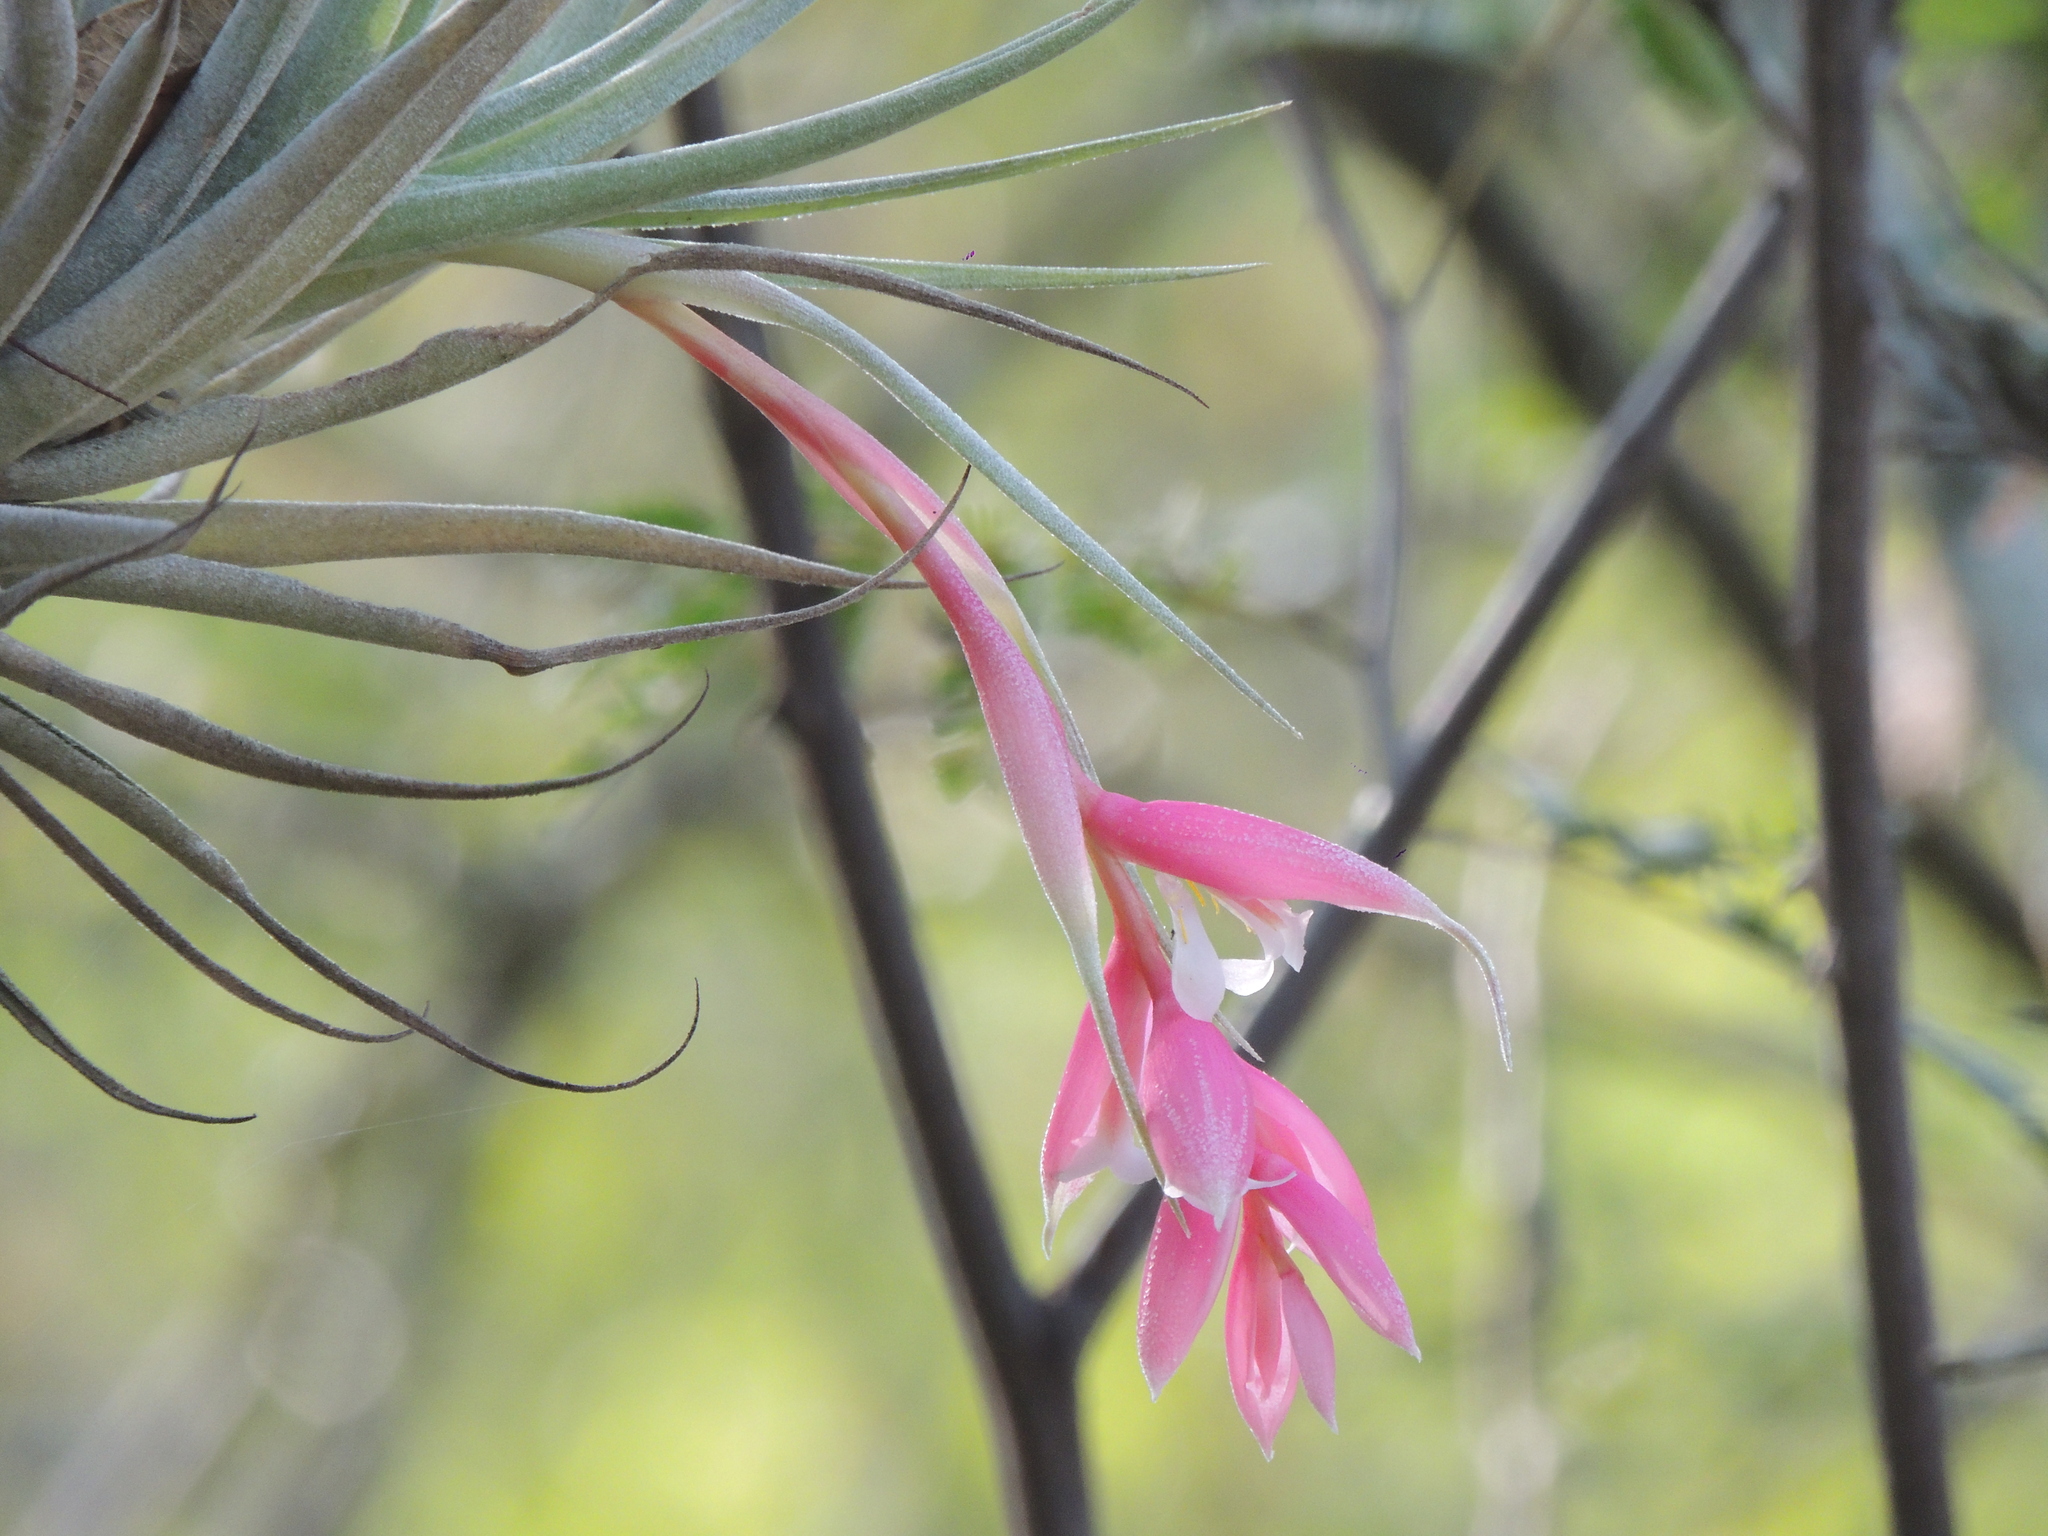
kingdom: Plantae
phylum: Tracheophyta
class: Liliopsida
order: Poales
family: Bromeliaceae
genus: Tillandsia
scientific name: Tillandsia recurvifolia
